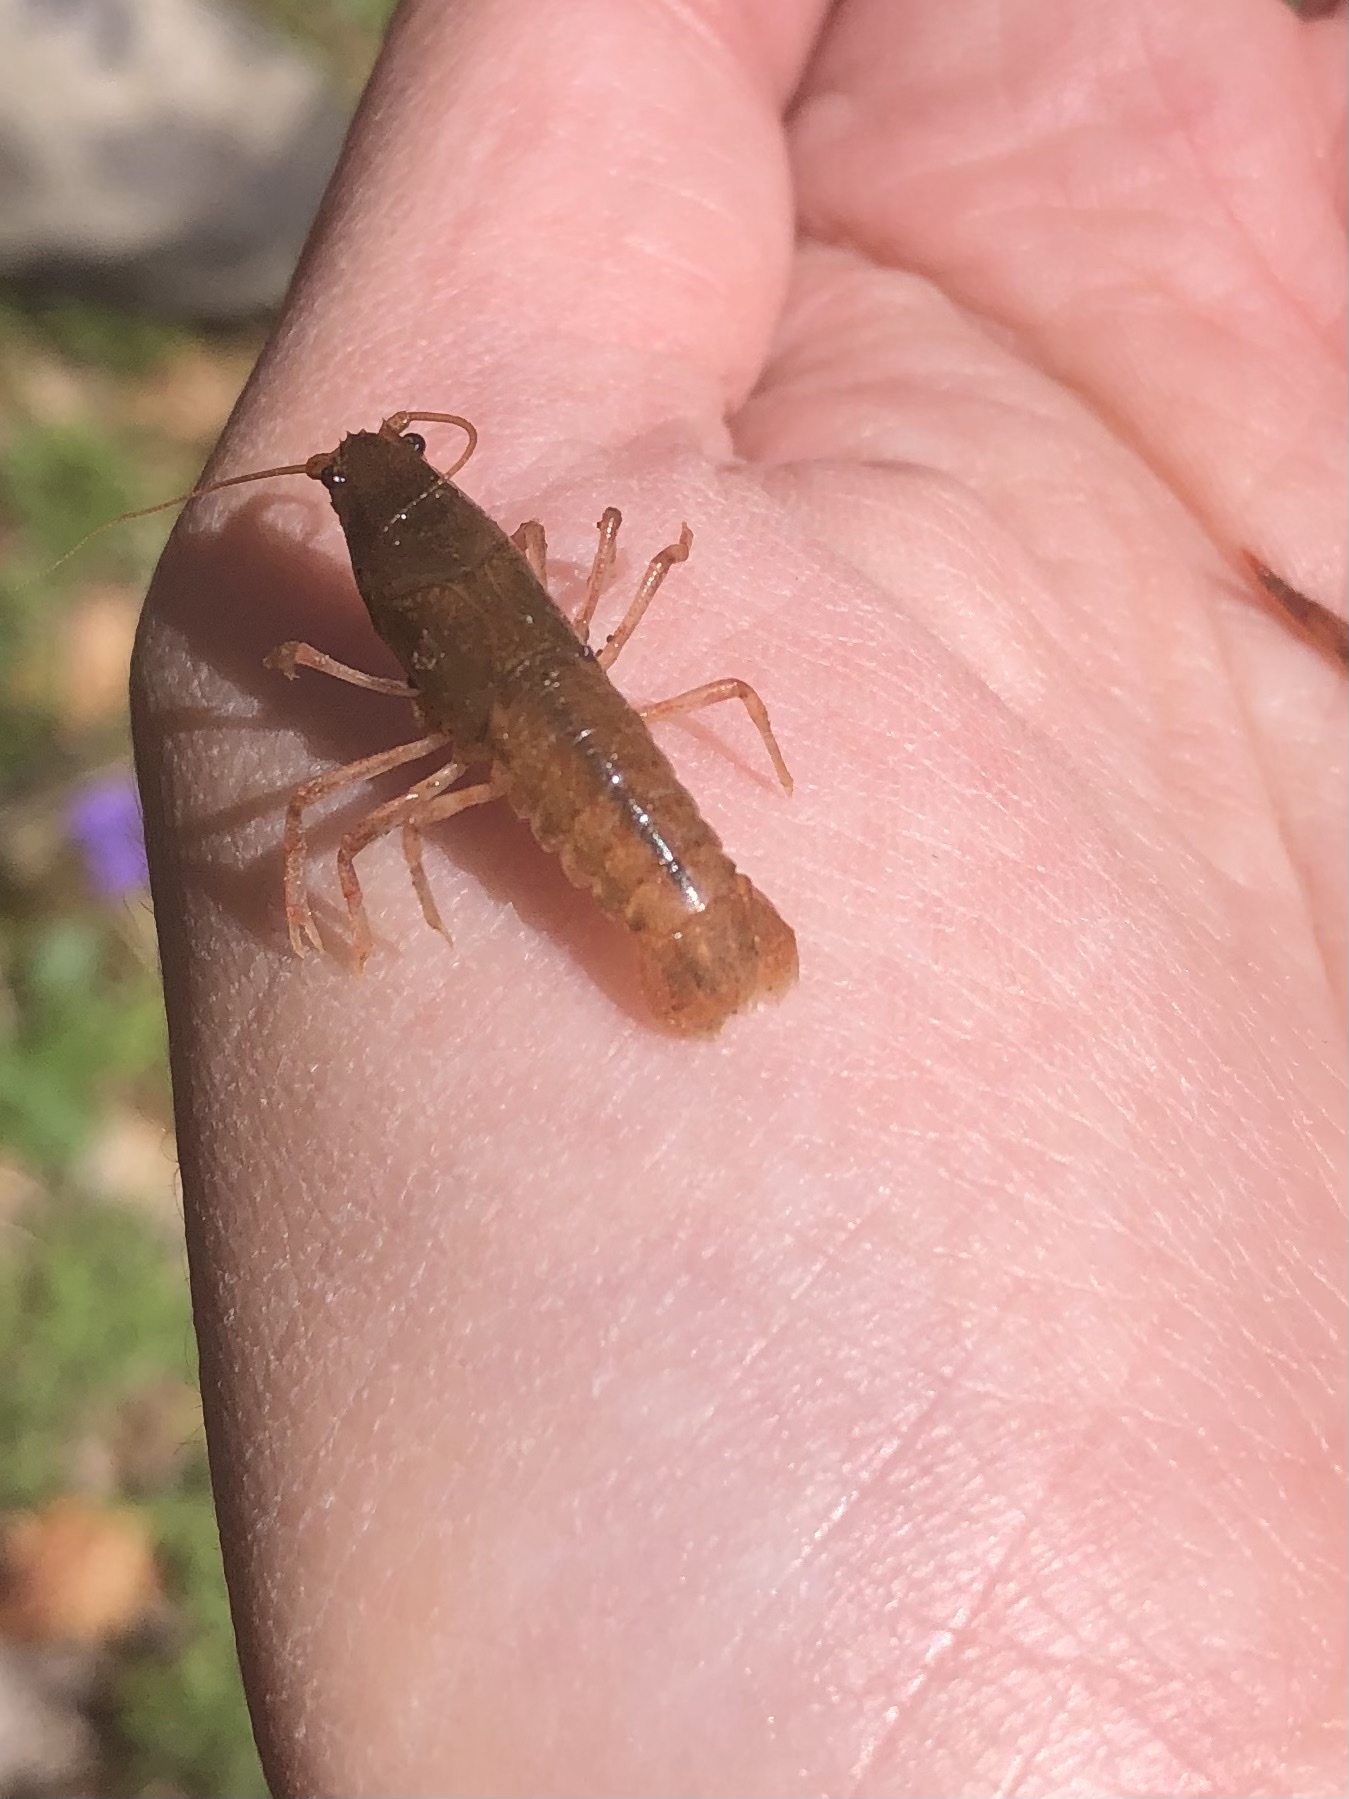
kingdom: Animalia
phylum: Arthropoda
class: Malacostraca
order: Decapoda
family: Cambaridae
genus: Cambarus
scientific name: Cambarus bartonii
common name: Appalachian brook crayfish
